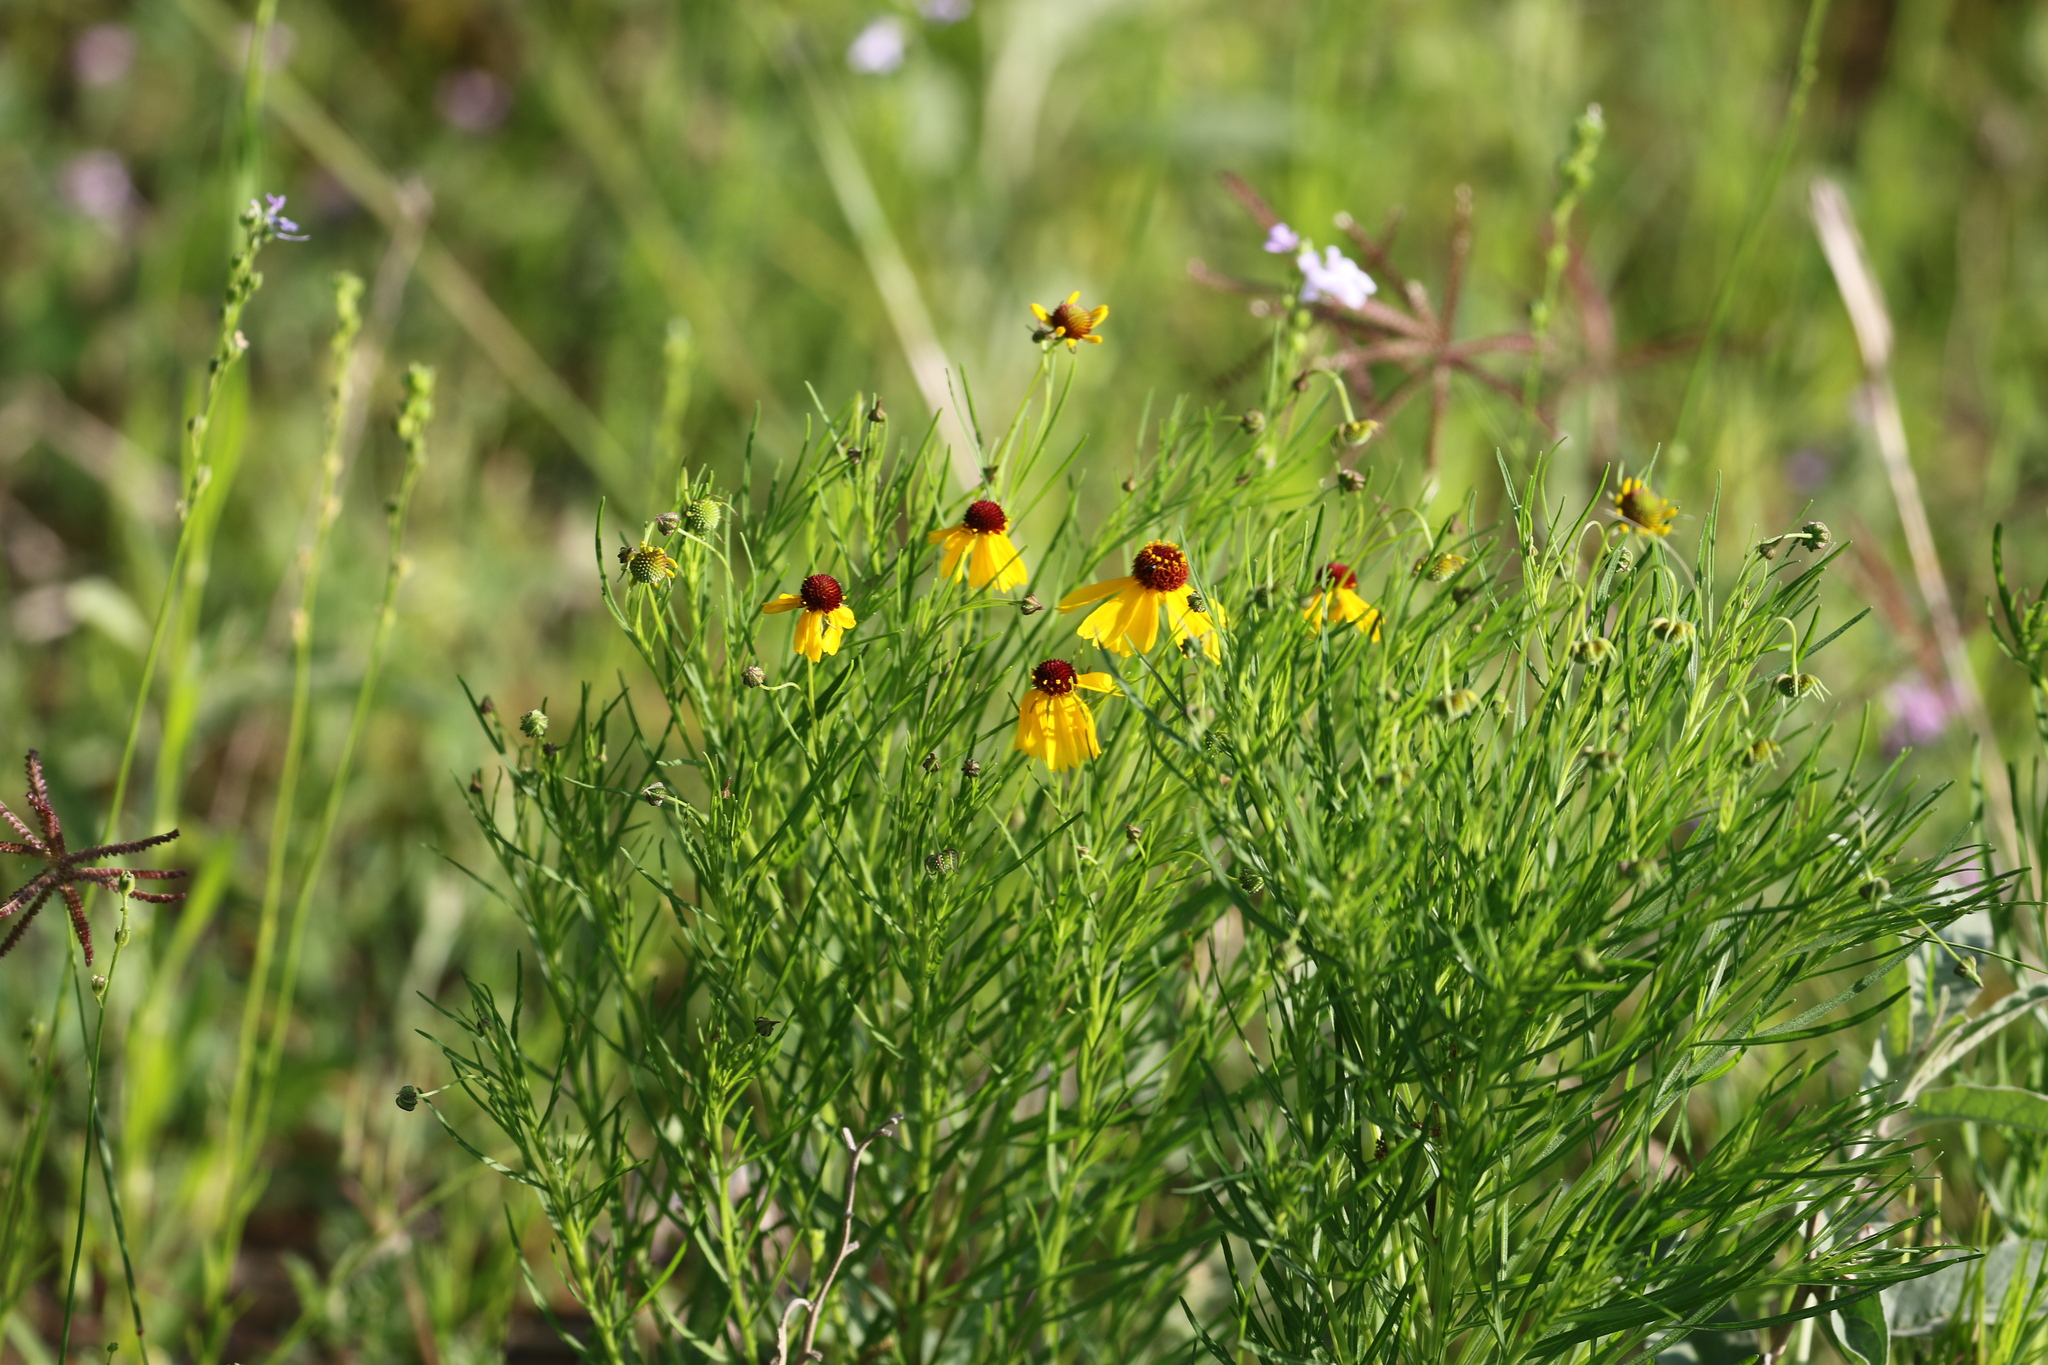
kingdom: Plantae
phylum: Tracheophyta
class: Magnoliopsida
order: Asterales
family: Asteraceae
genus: Helenium
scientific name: Helenium amarum
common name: Bitter sneezeweed
